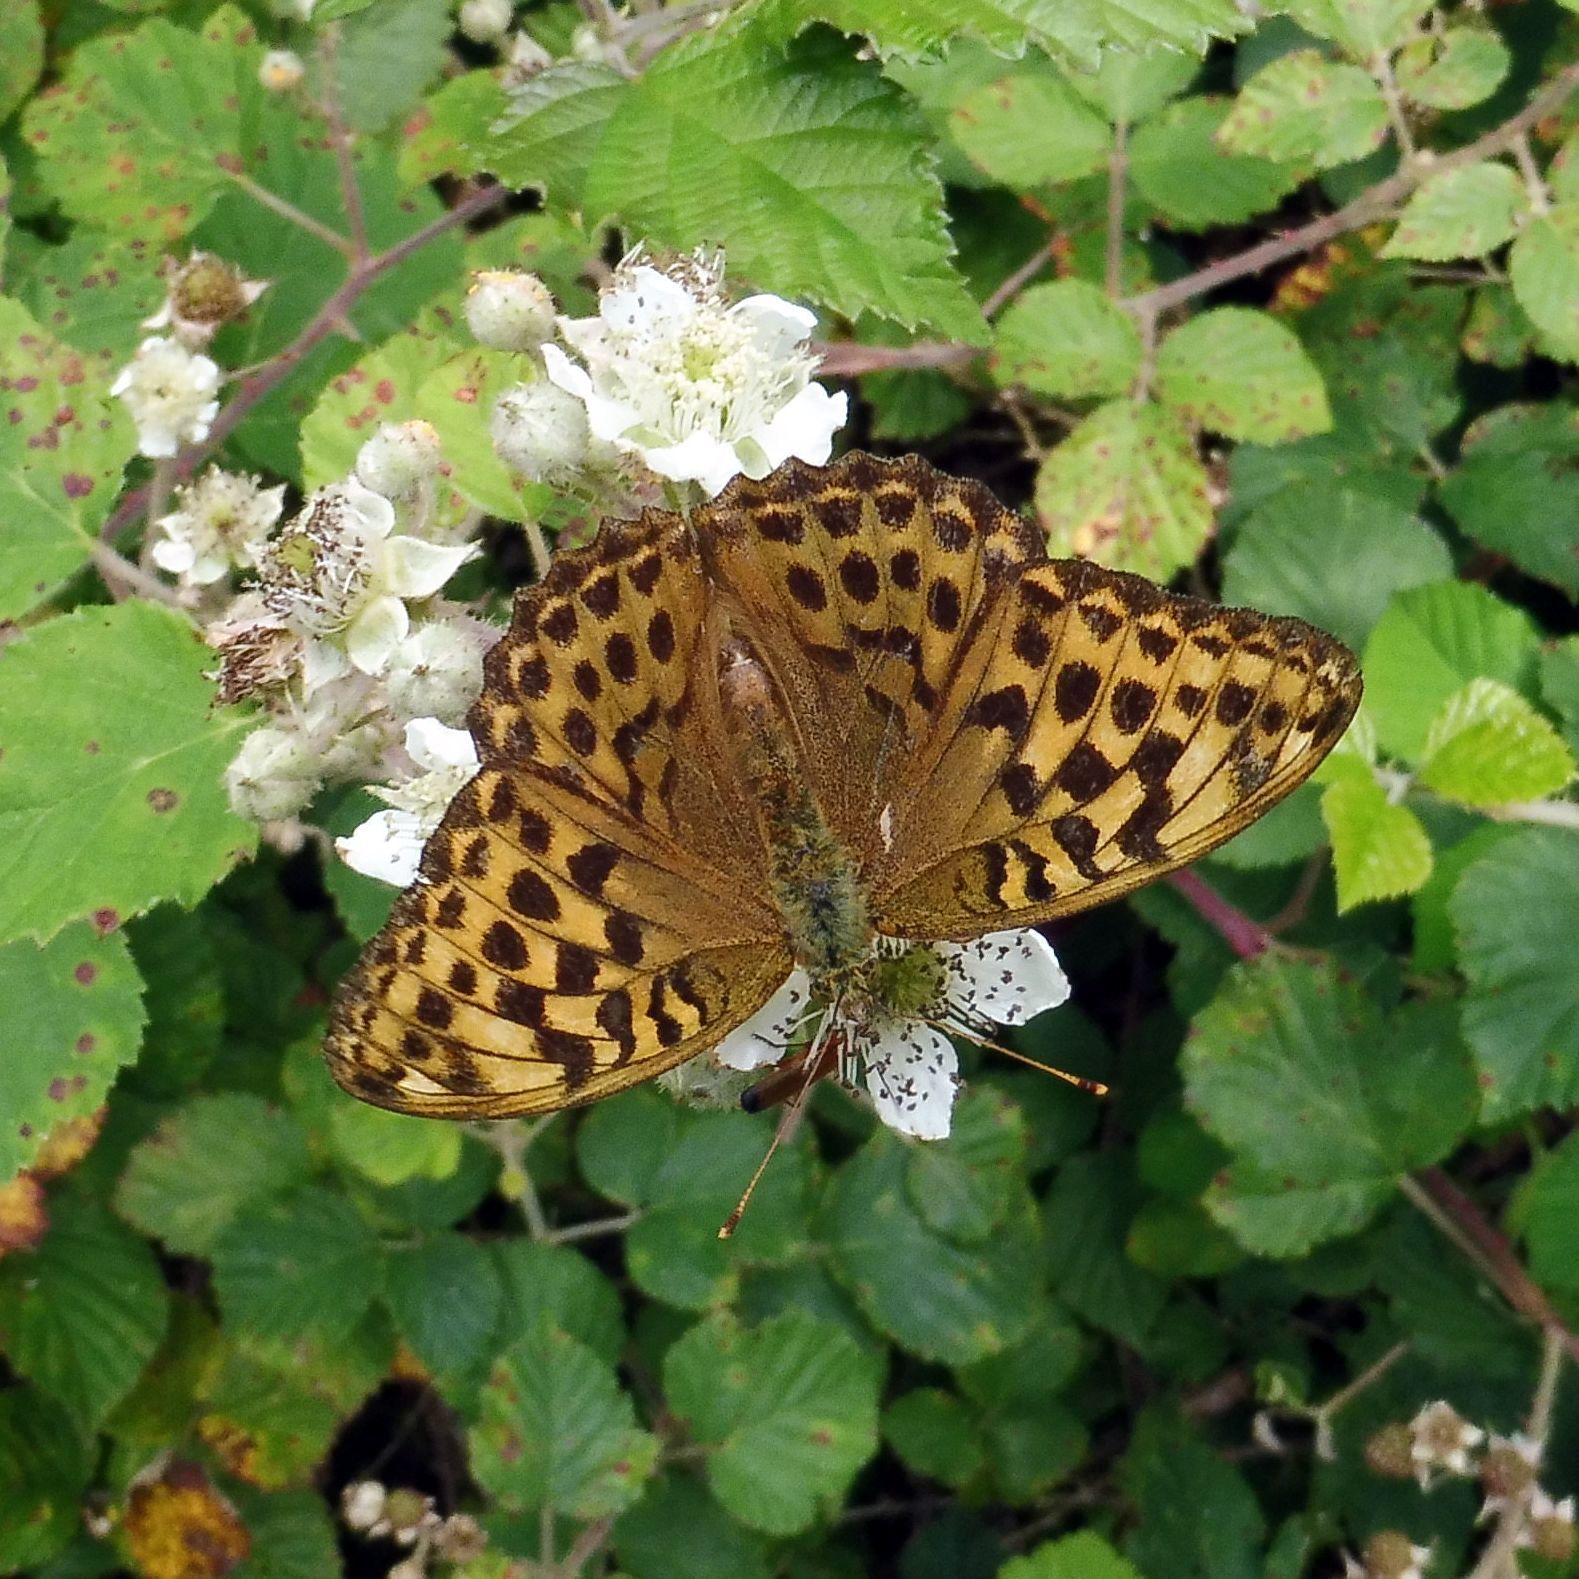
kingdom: Animalia
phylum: Arthropoda
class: Insecta
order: Lepidoptera
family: Nymphalidae
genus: Argynnis
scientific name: Argynnis paphia
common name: Silver-washed fritillary
